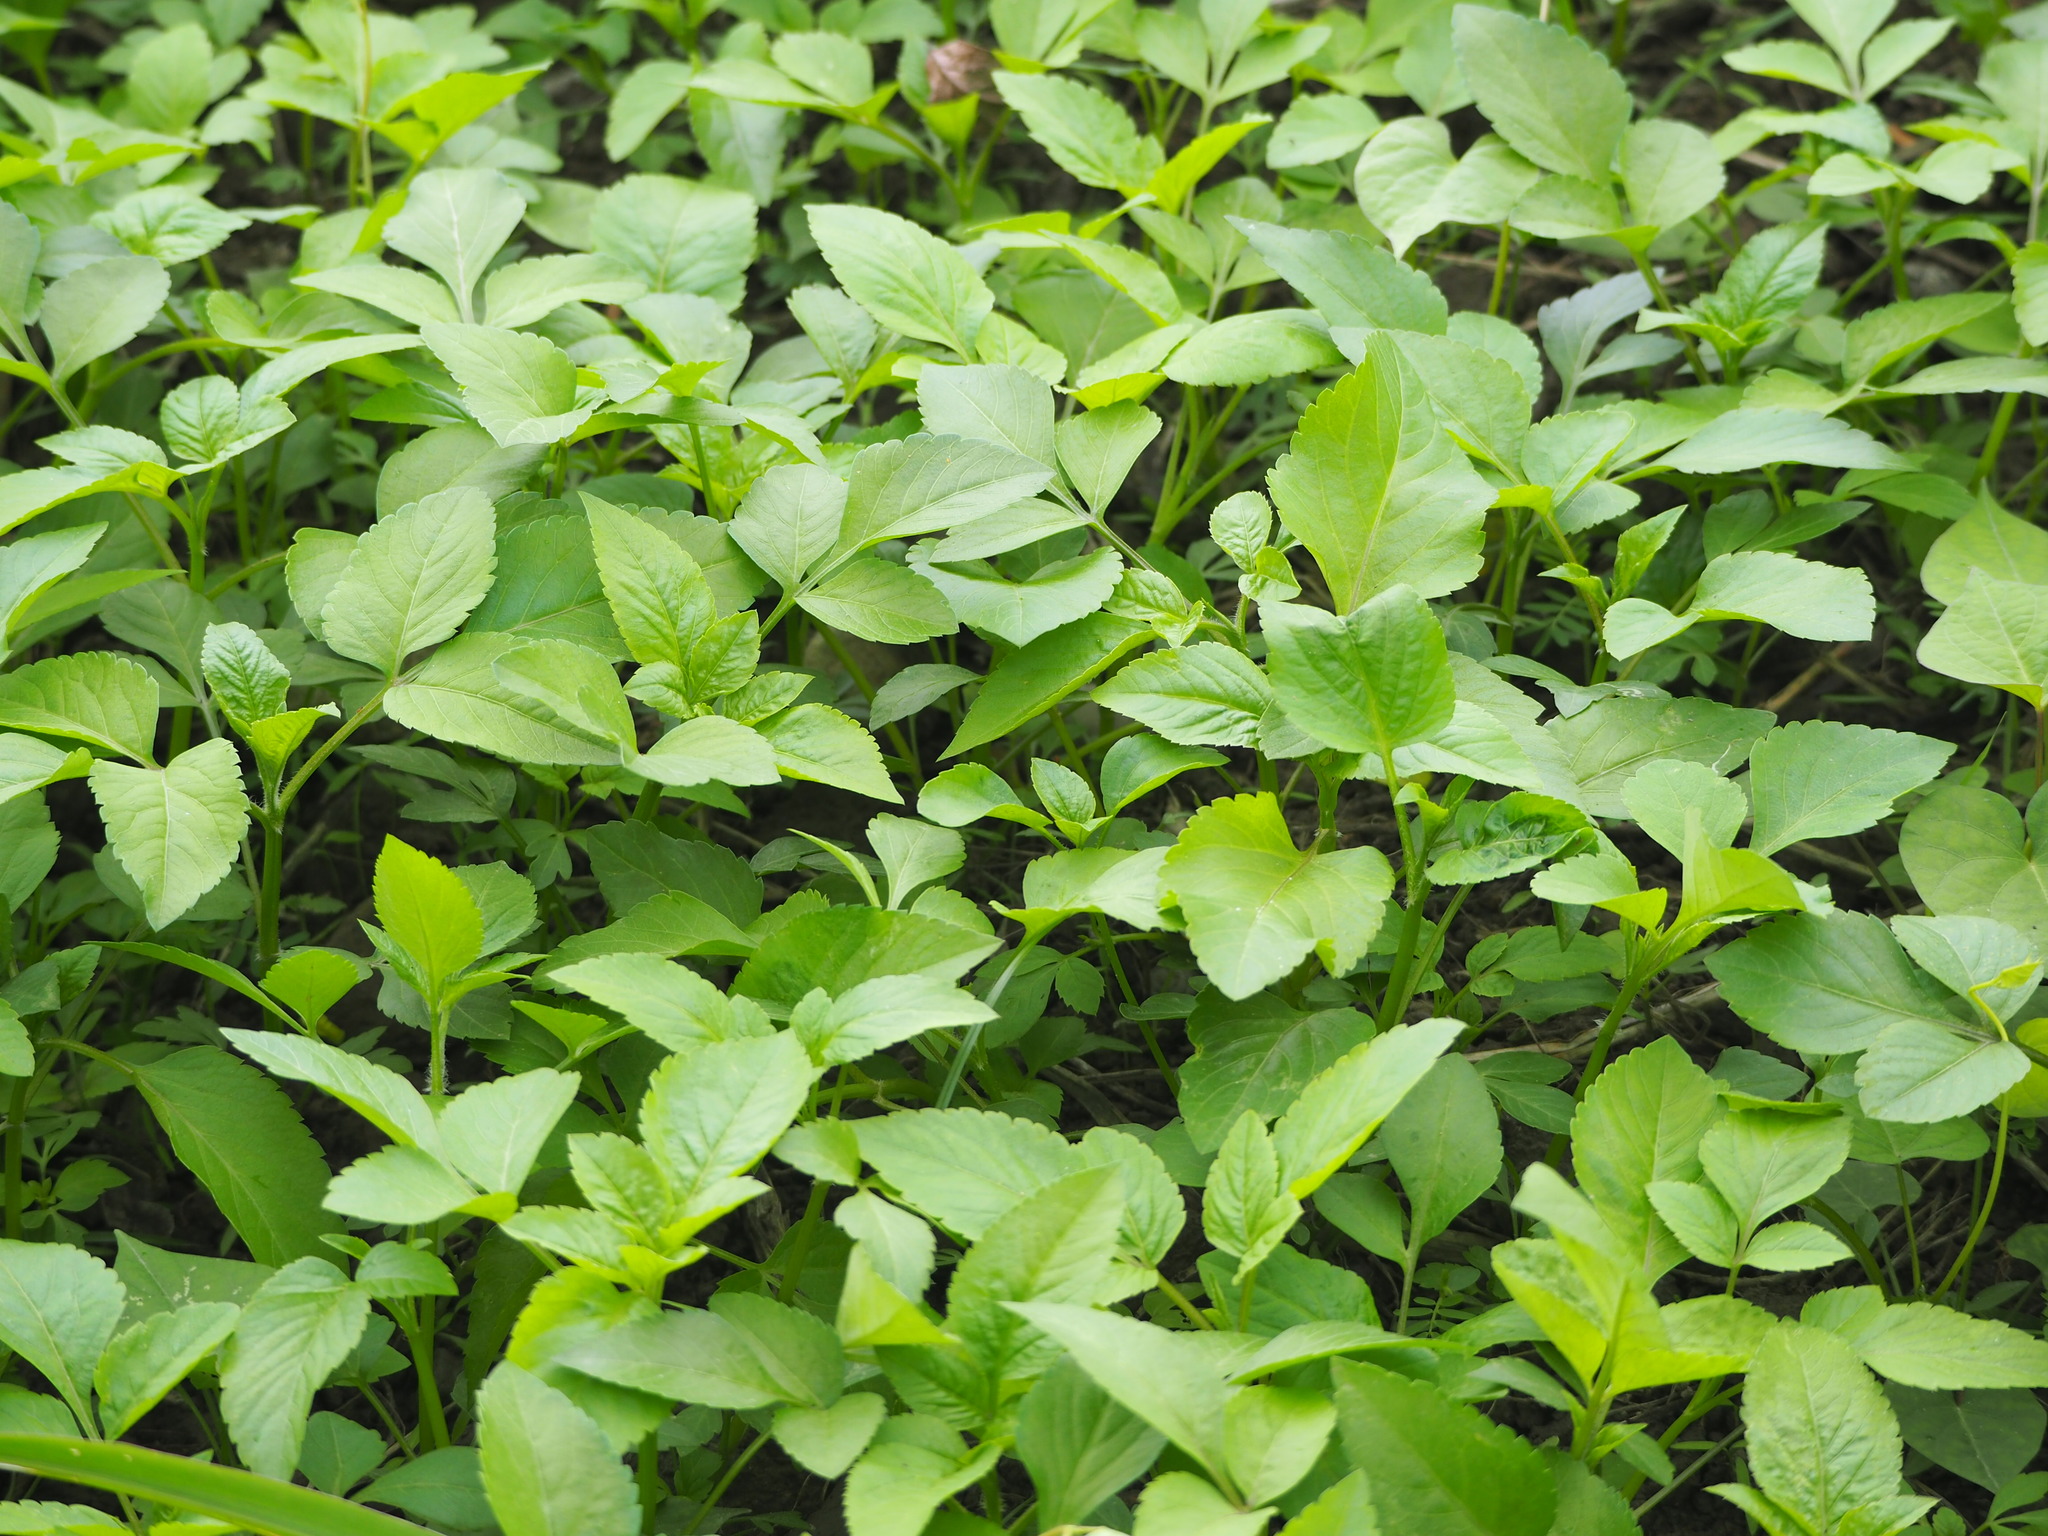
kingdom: Plantae
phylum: Tracheophyta
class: Magnoliopsida
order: Asterales
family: Asteraceae
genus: Bidens
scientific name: Bidens alba
